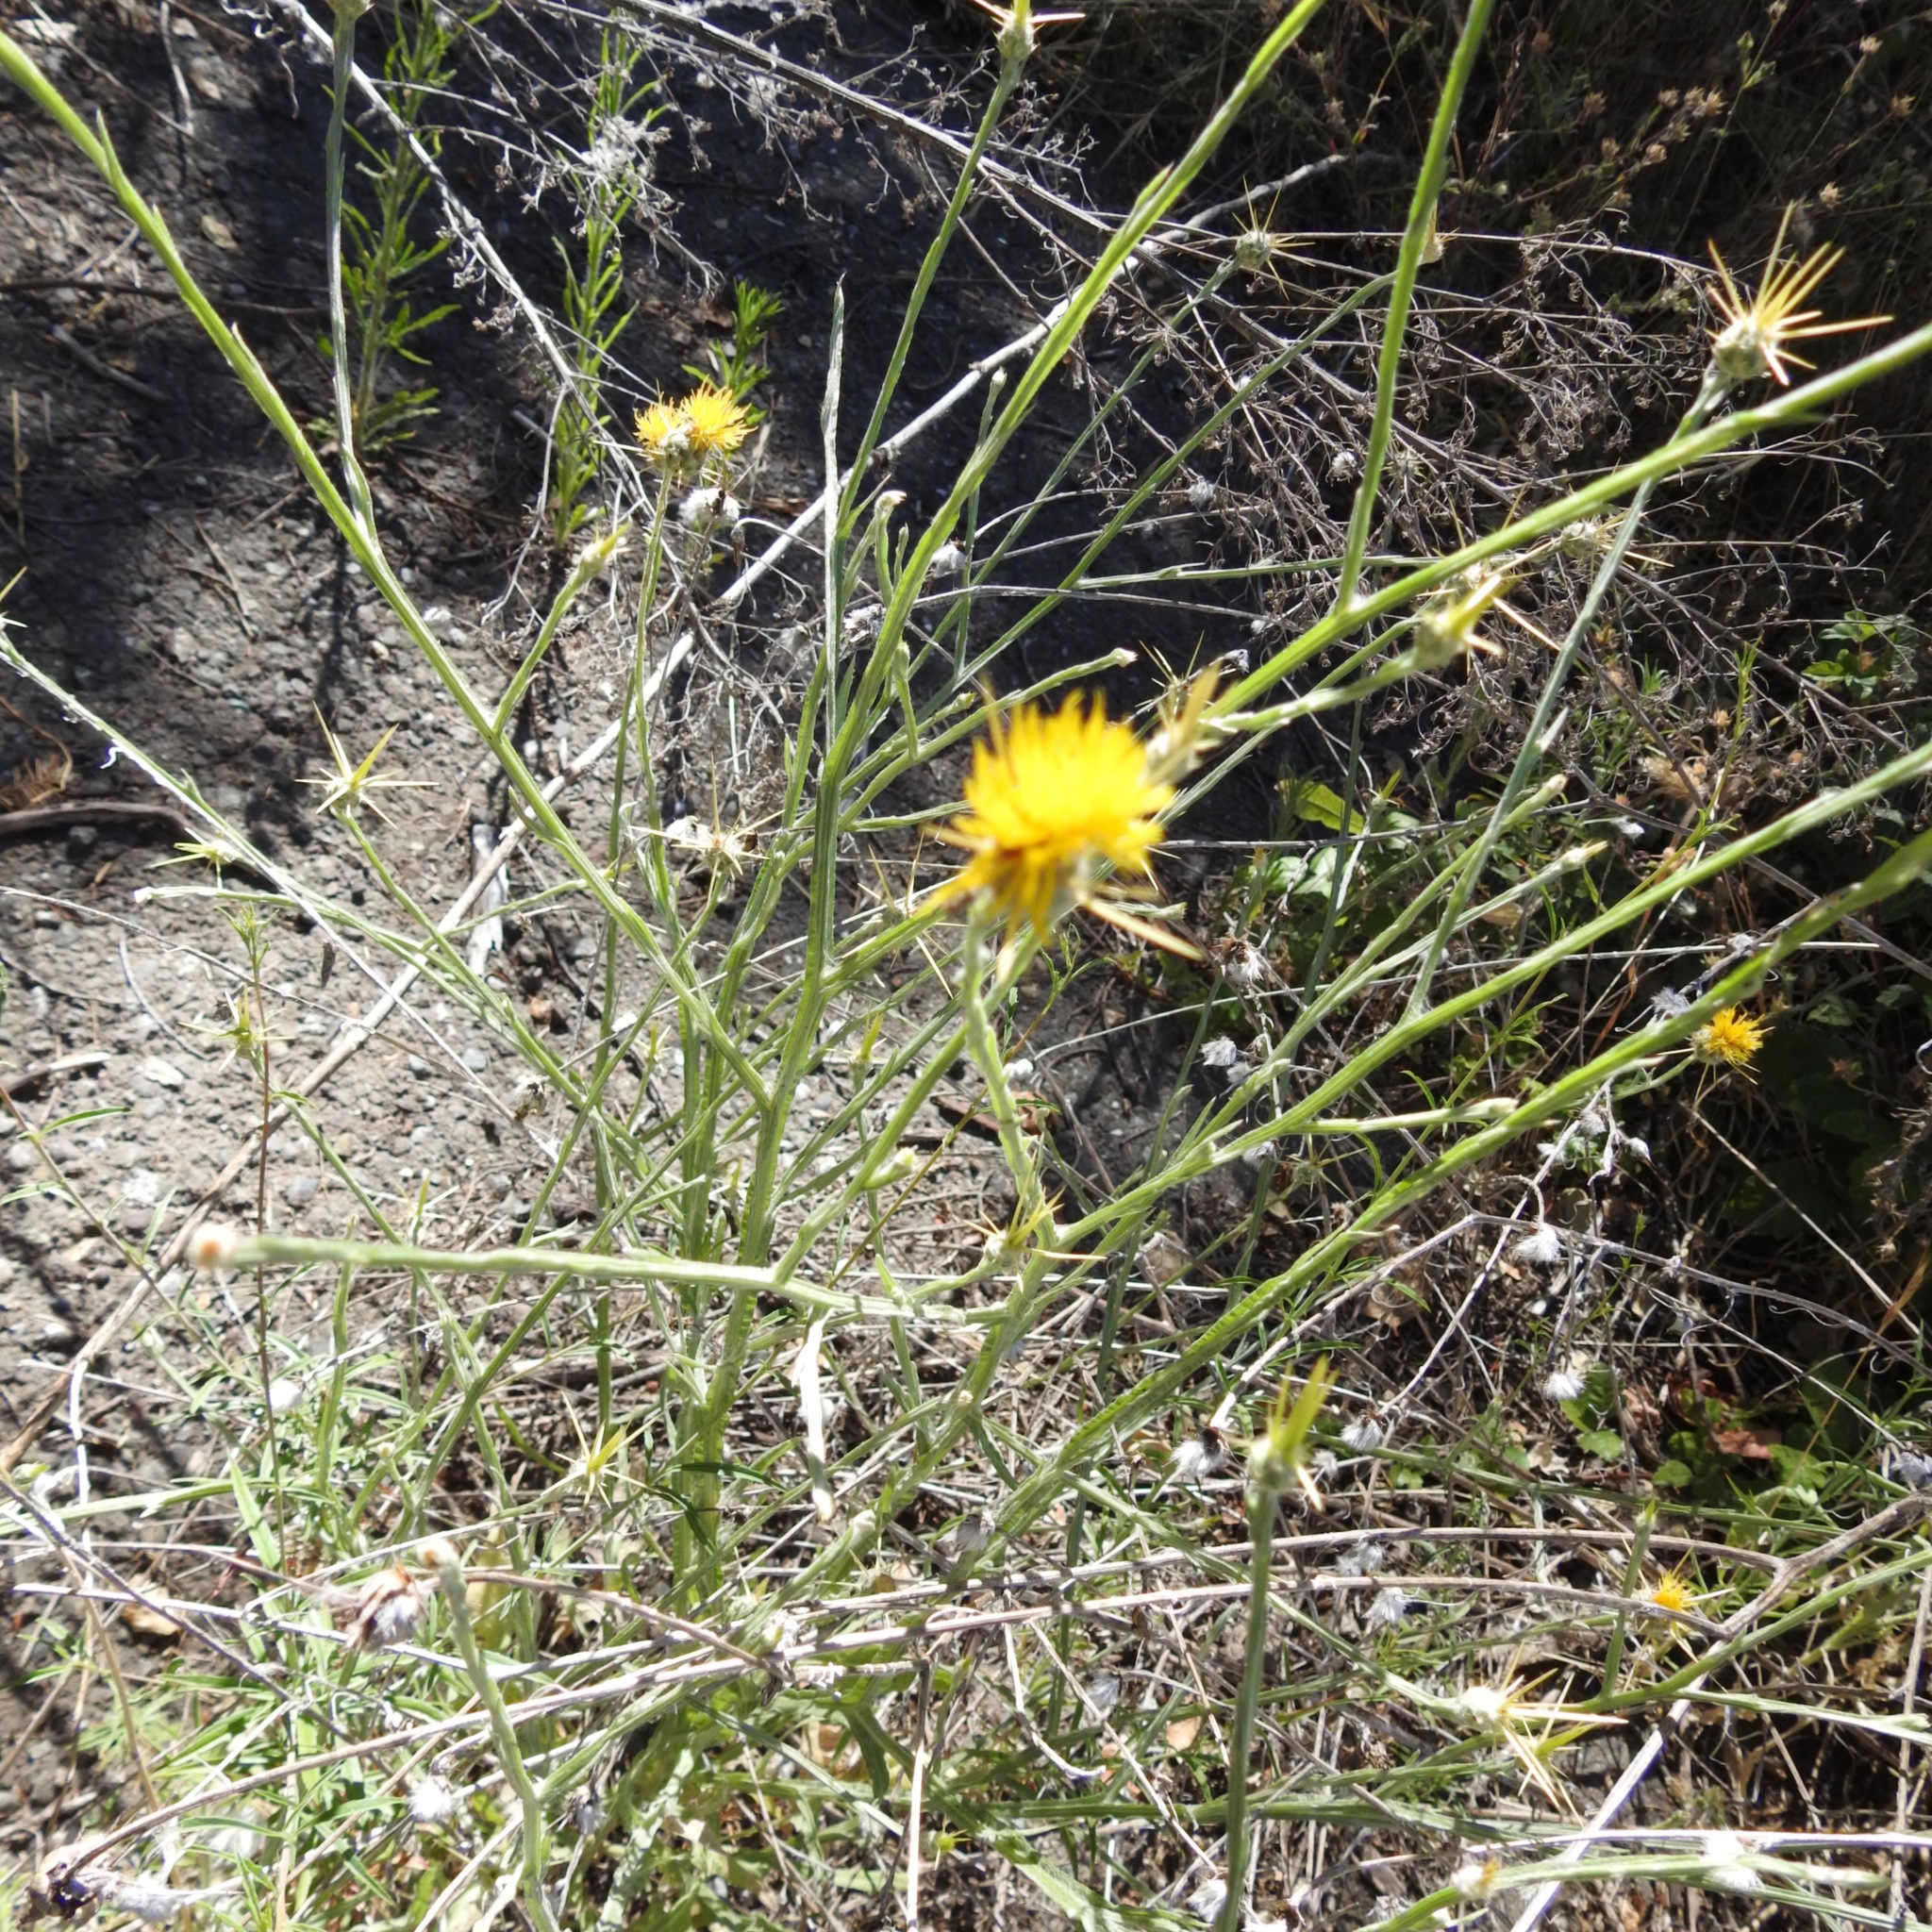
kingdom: Plantae
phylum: Tracheophyta
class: Magnoliopsida
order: Asterales
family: Asteraceae
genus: Centaurea
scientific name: Centaurea solstitialis
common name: Yellow star-thistle
